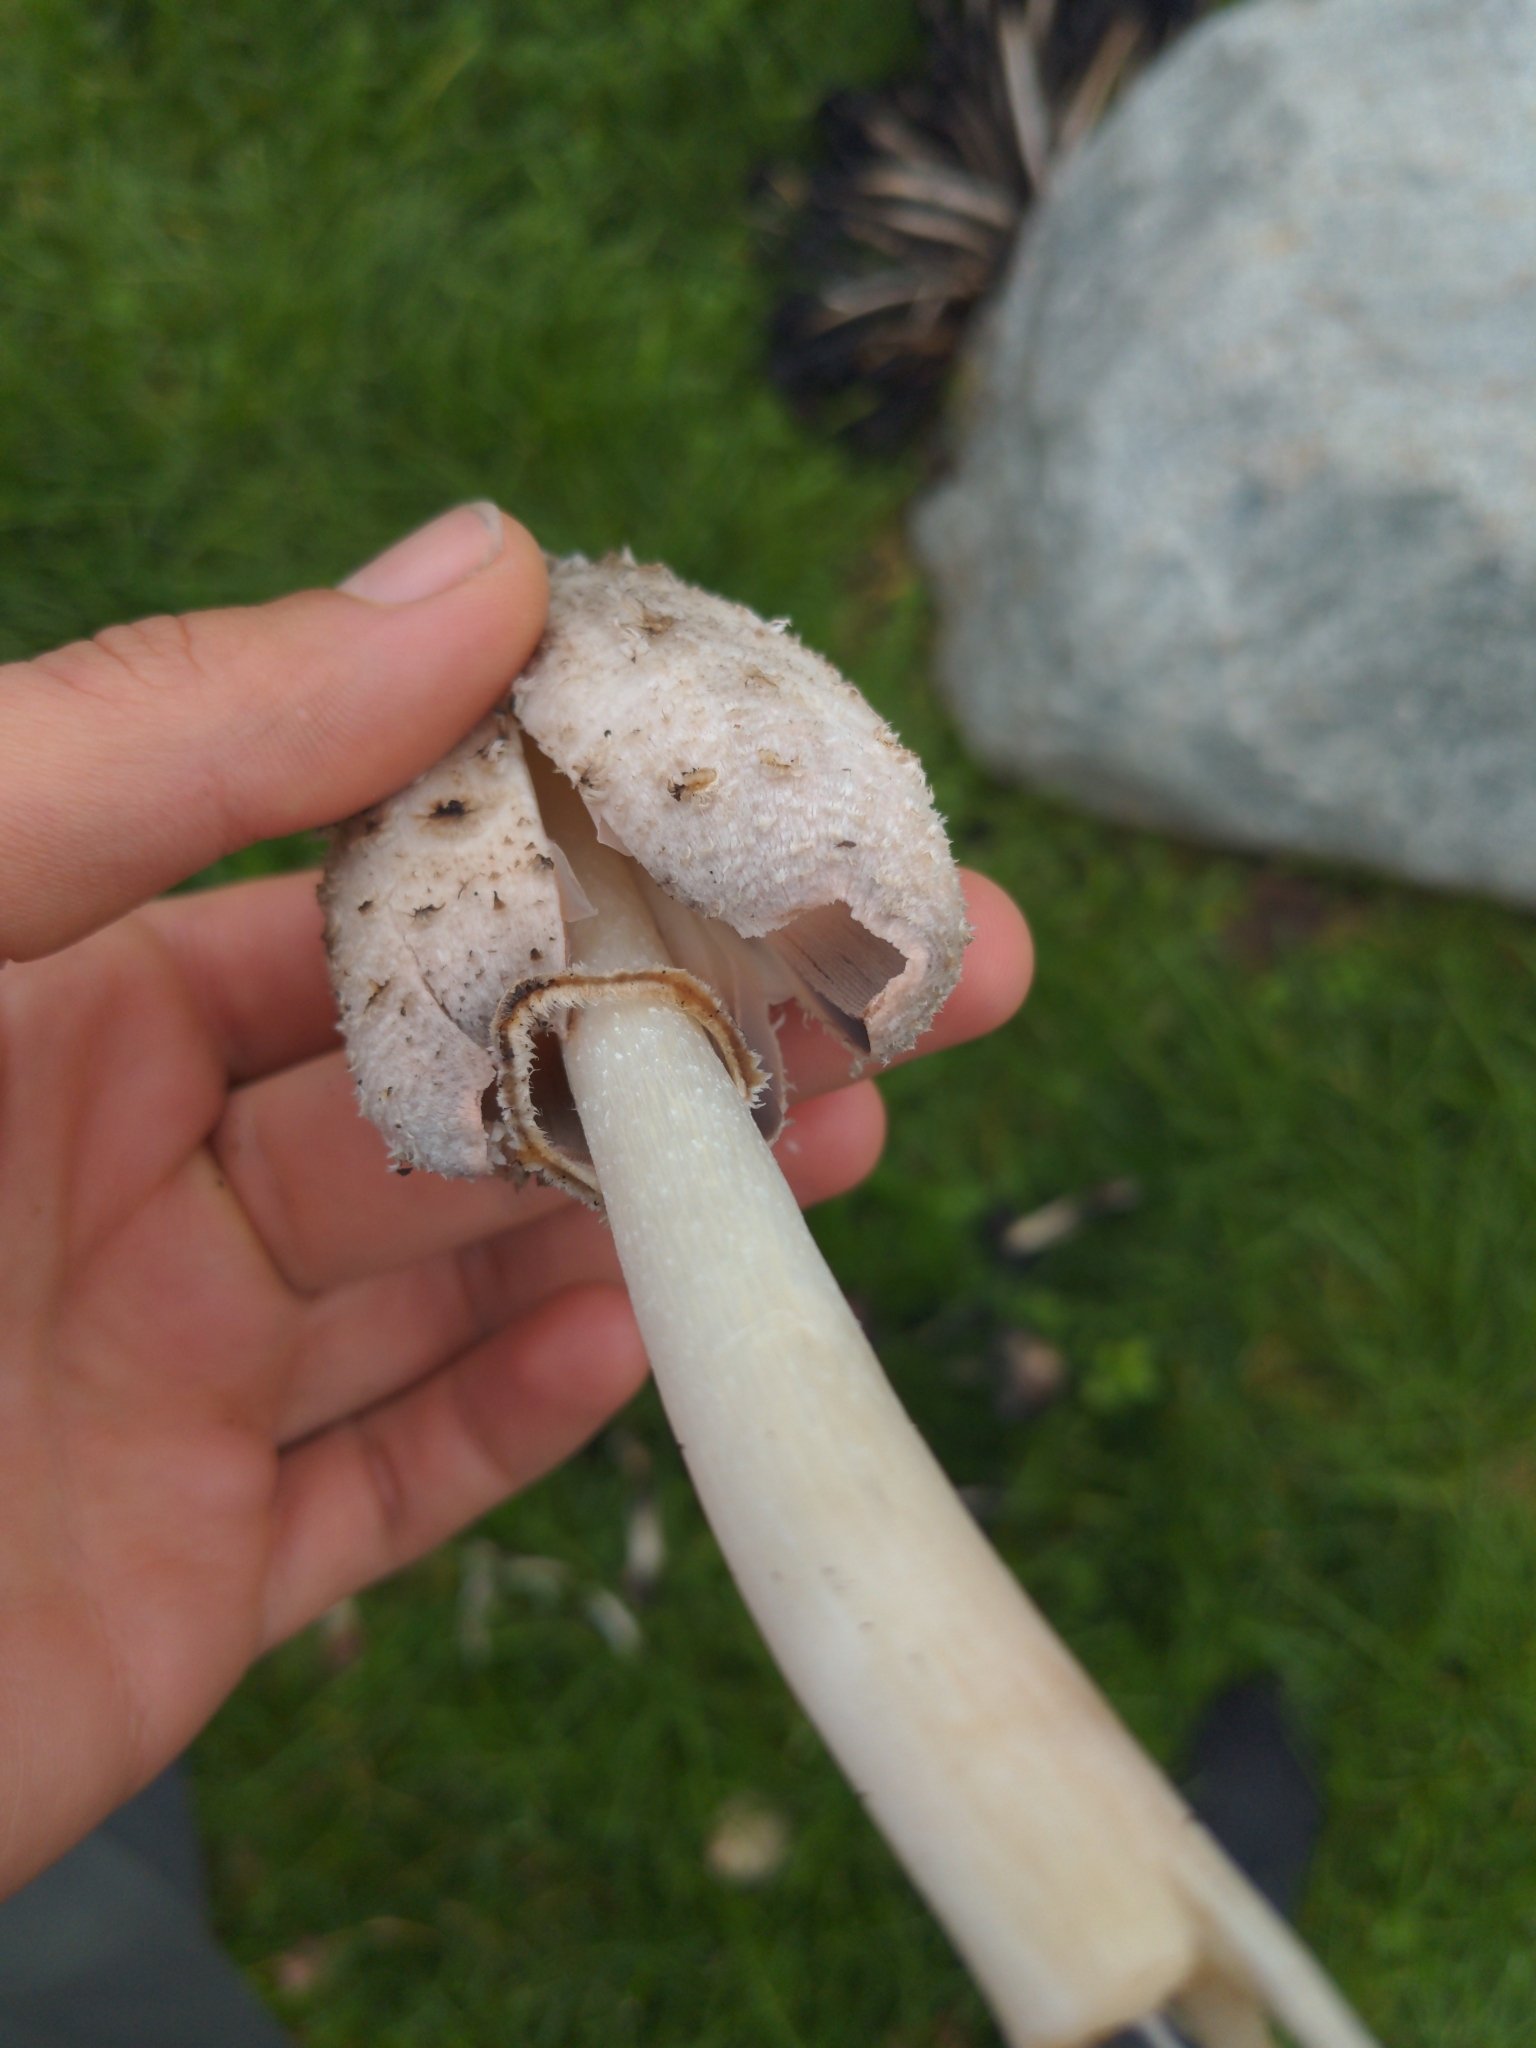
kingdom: Fungi
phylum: Basidiomycota
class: Agaricomycetes
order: Agaricales
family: Agaricaceae
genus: Coprinus
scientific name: Coprinus comatus
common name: Lawyer's wig
